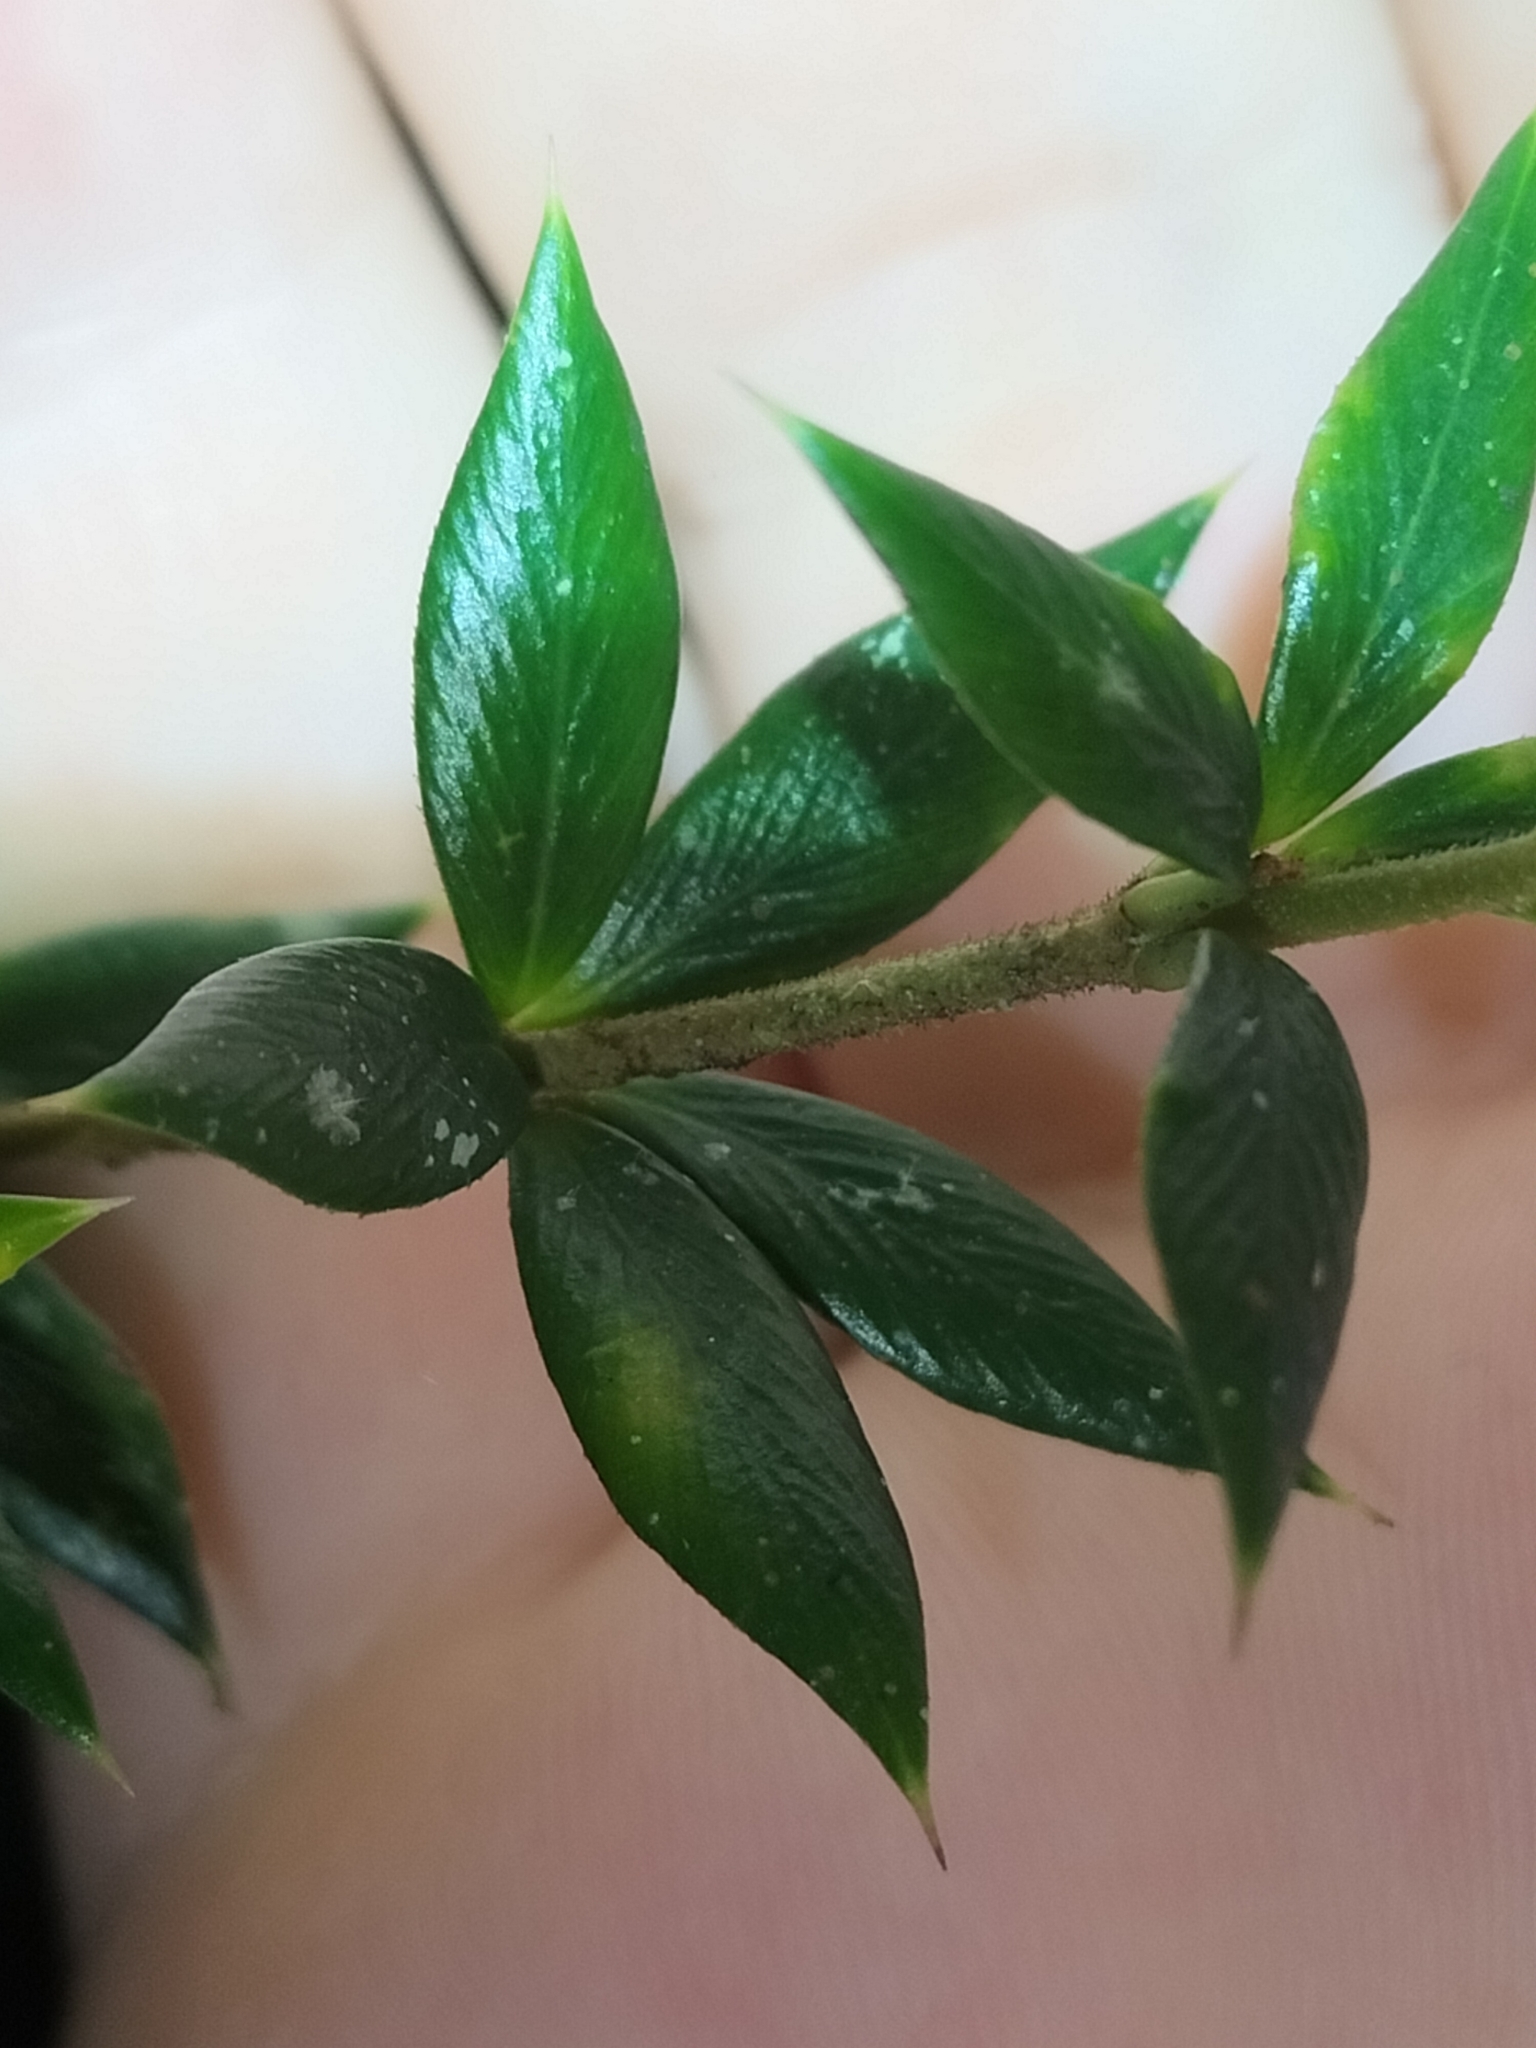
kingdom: Plantae
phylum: Tracheophyta
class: Magnoliopsida
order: Gentianales
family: Apocynaceae
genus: Alyxia
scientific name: Alyxia ruscifolia
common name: Chainfruit
